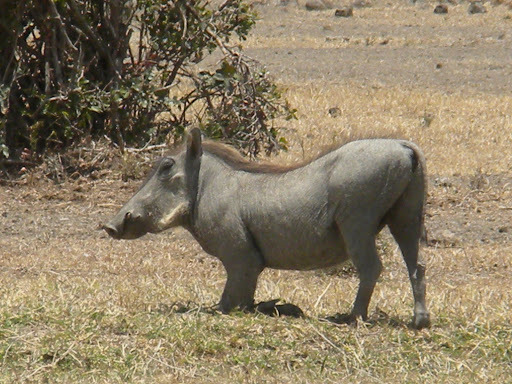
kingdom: Animalia
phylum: Chordata
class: Mammalia
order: Artiodactyla
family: Suidae
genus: Phacochoerus
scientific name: Phacochoerus africanus
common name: Common warthog
